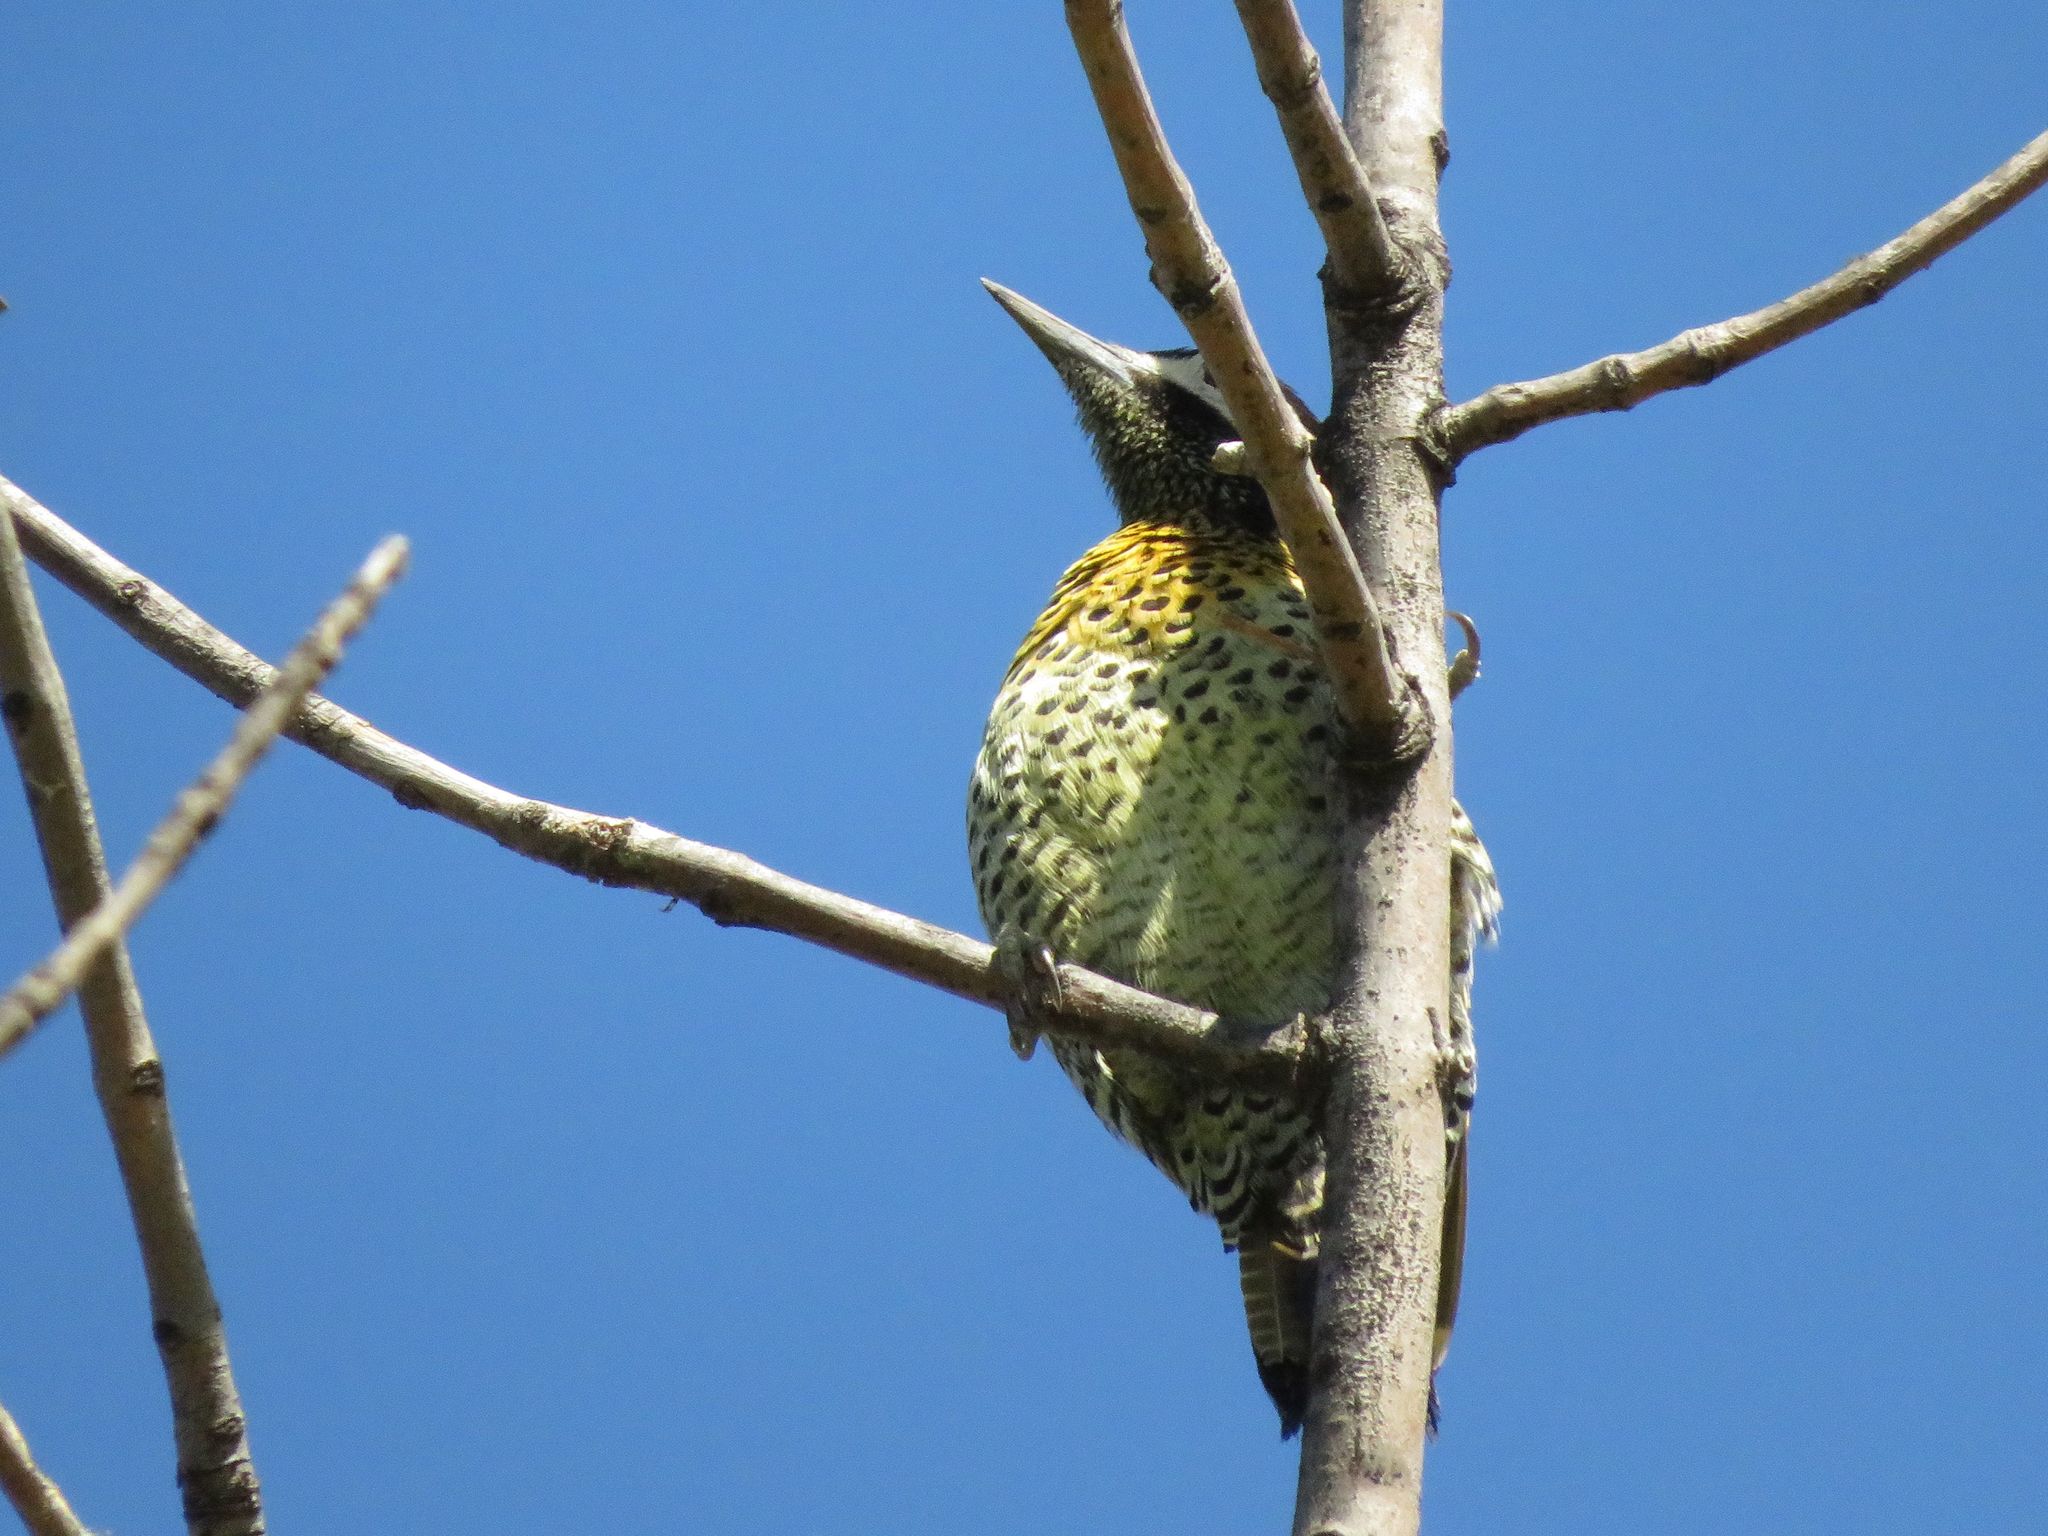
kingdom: Animalia
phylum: Chordata
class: Aves
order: Piciformes
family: Picidae
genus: Colaptes
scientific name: Colaptes melanochloros
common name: Green-barred woodpecker
